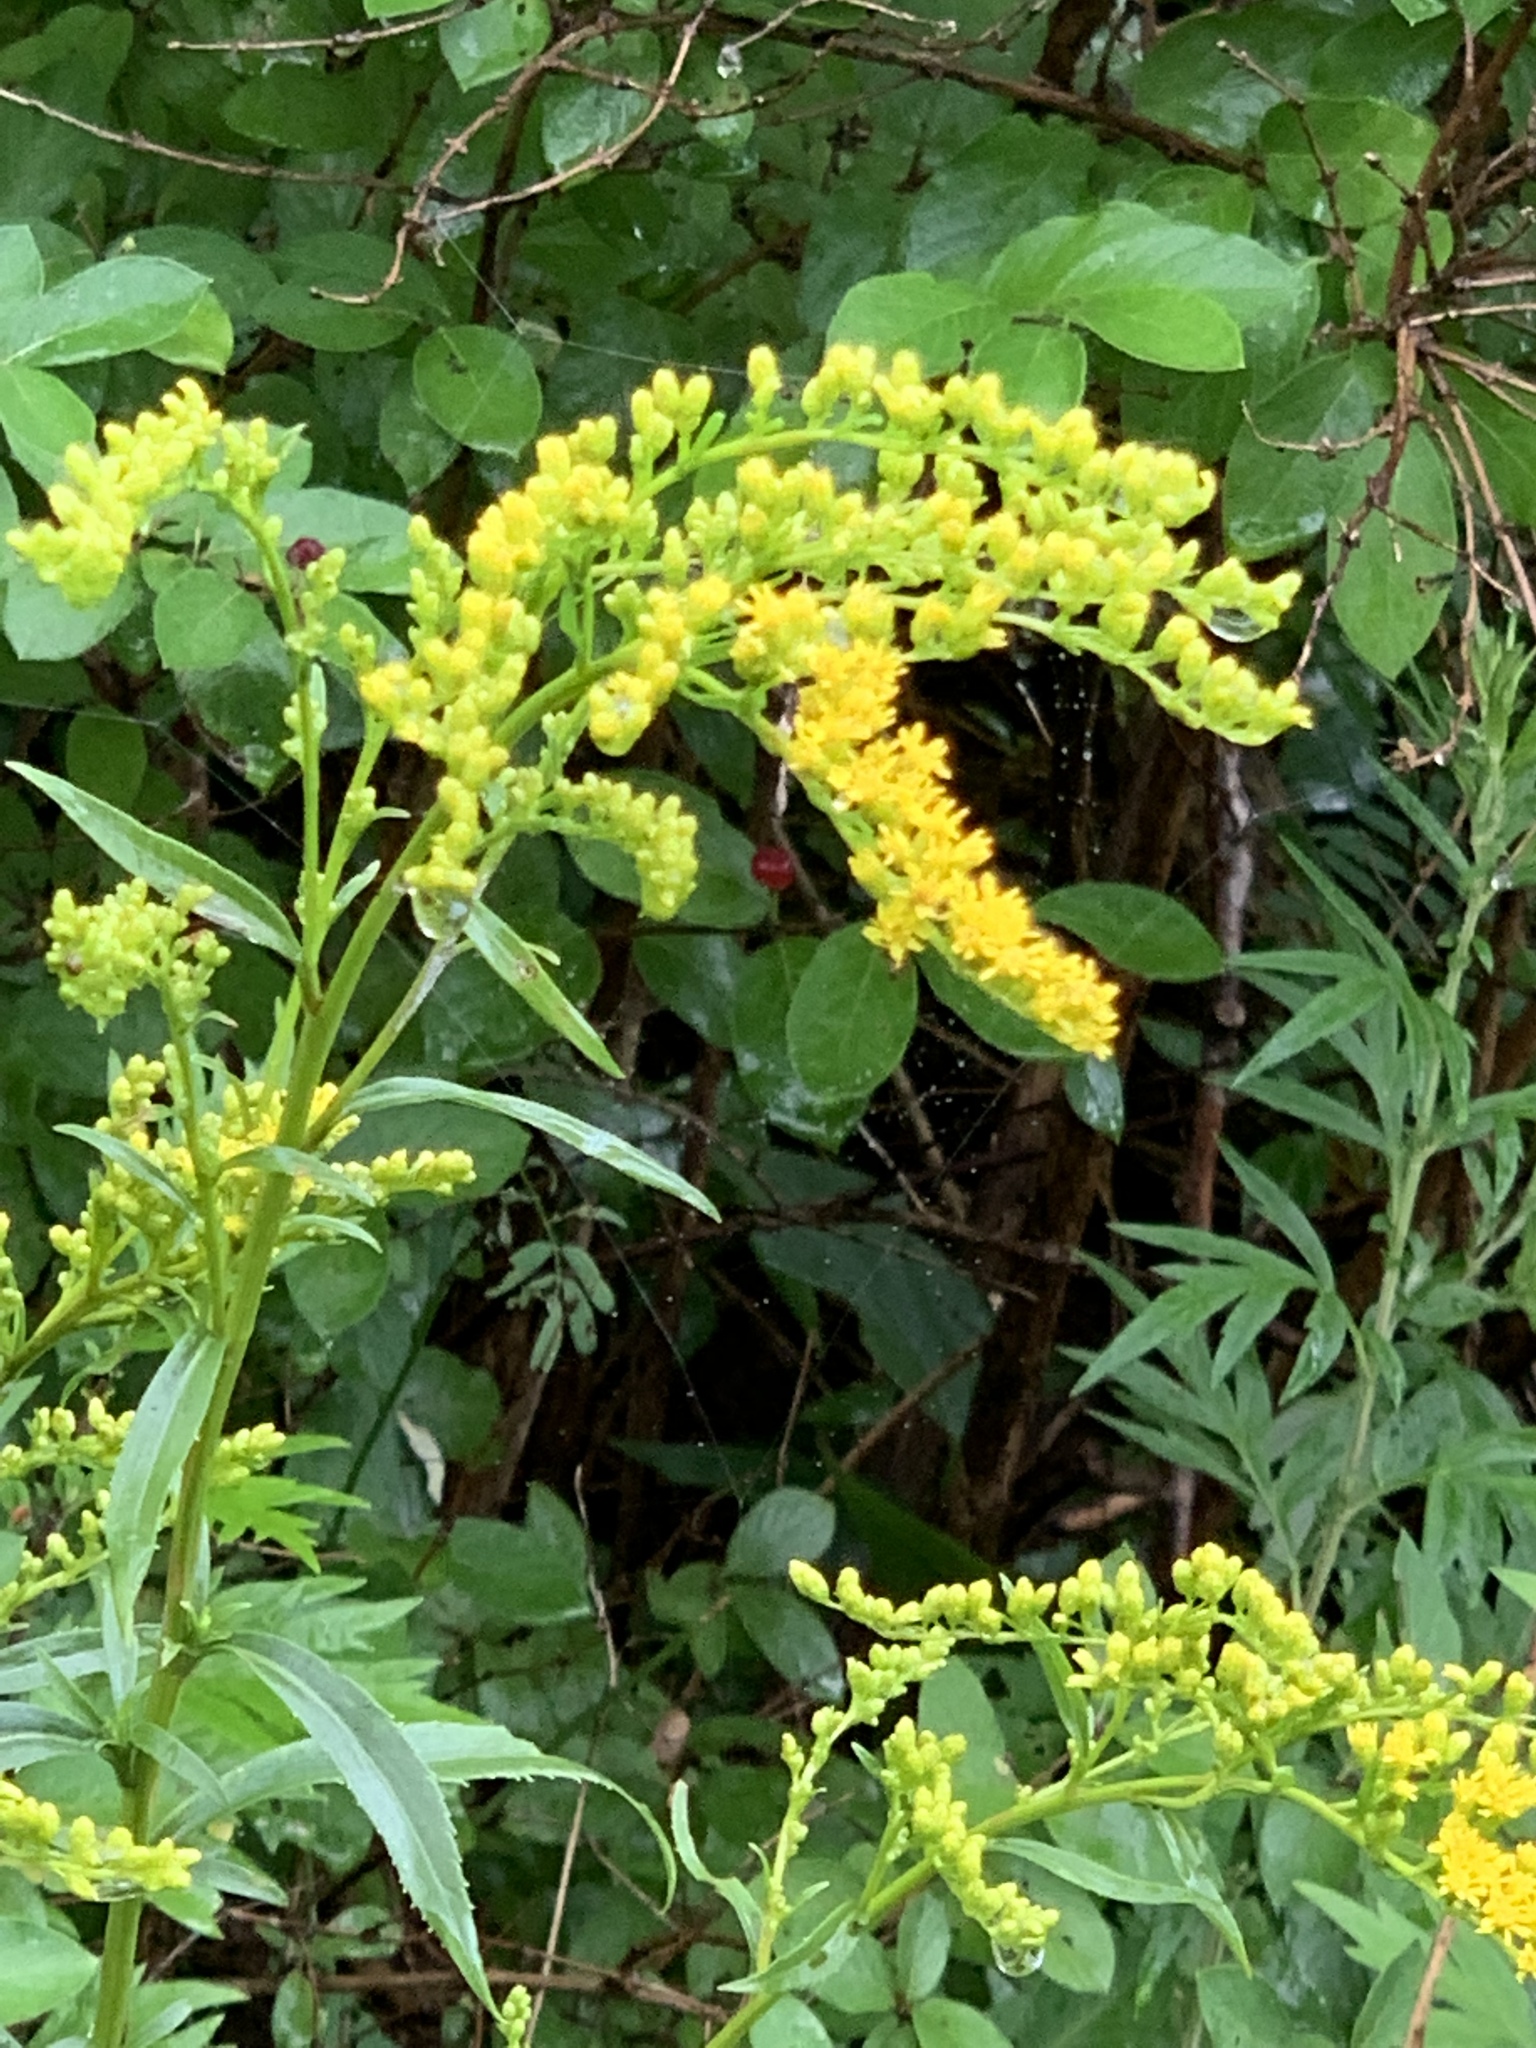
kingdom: Plantae
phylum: Tracheophyta
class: Magnoliopsida
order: Asterales
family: Asteraceae
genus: Solidago
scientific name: Solidago juncea
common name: Early goldenrod
